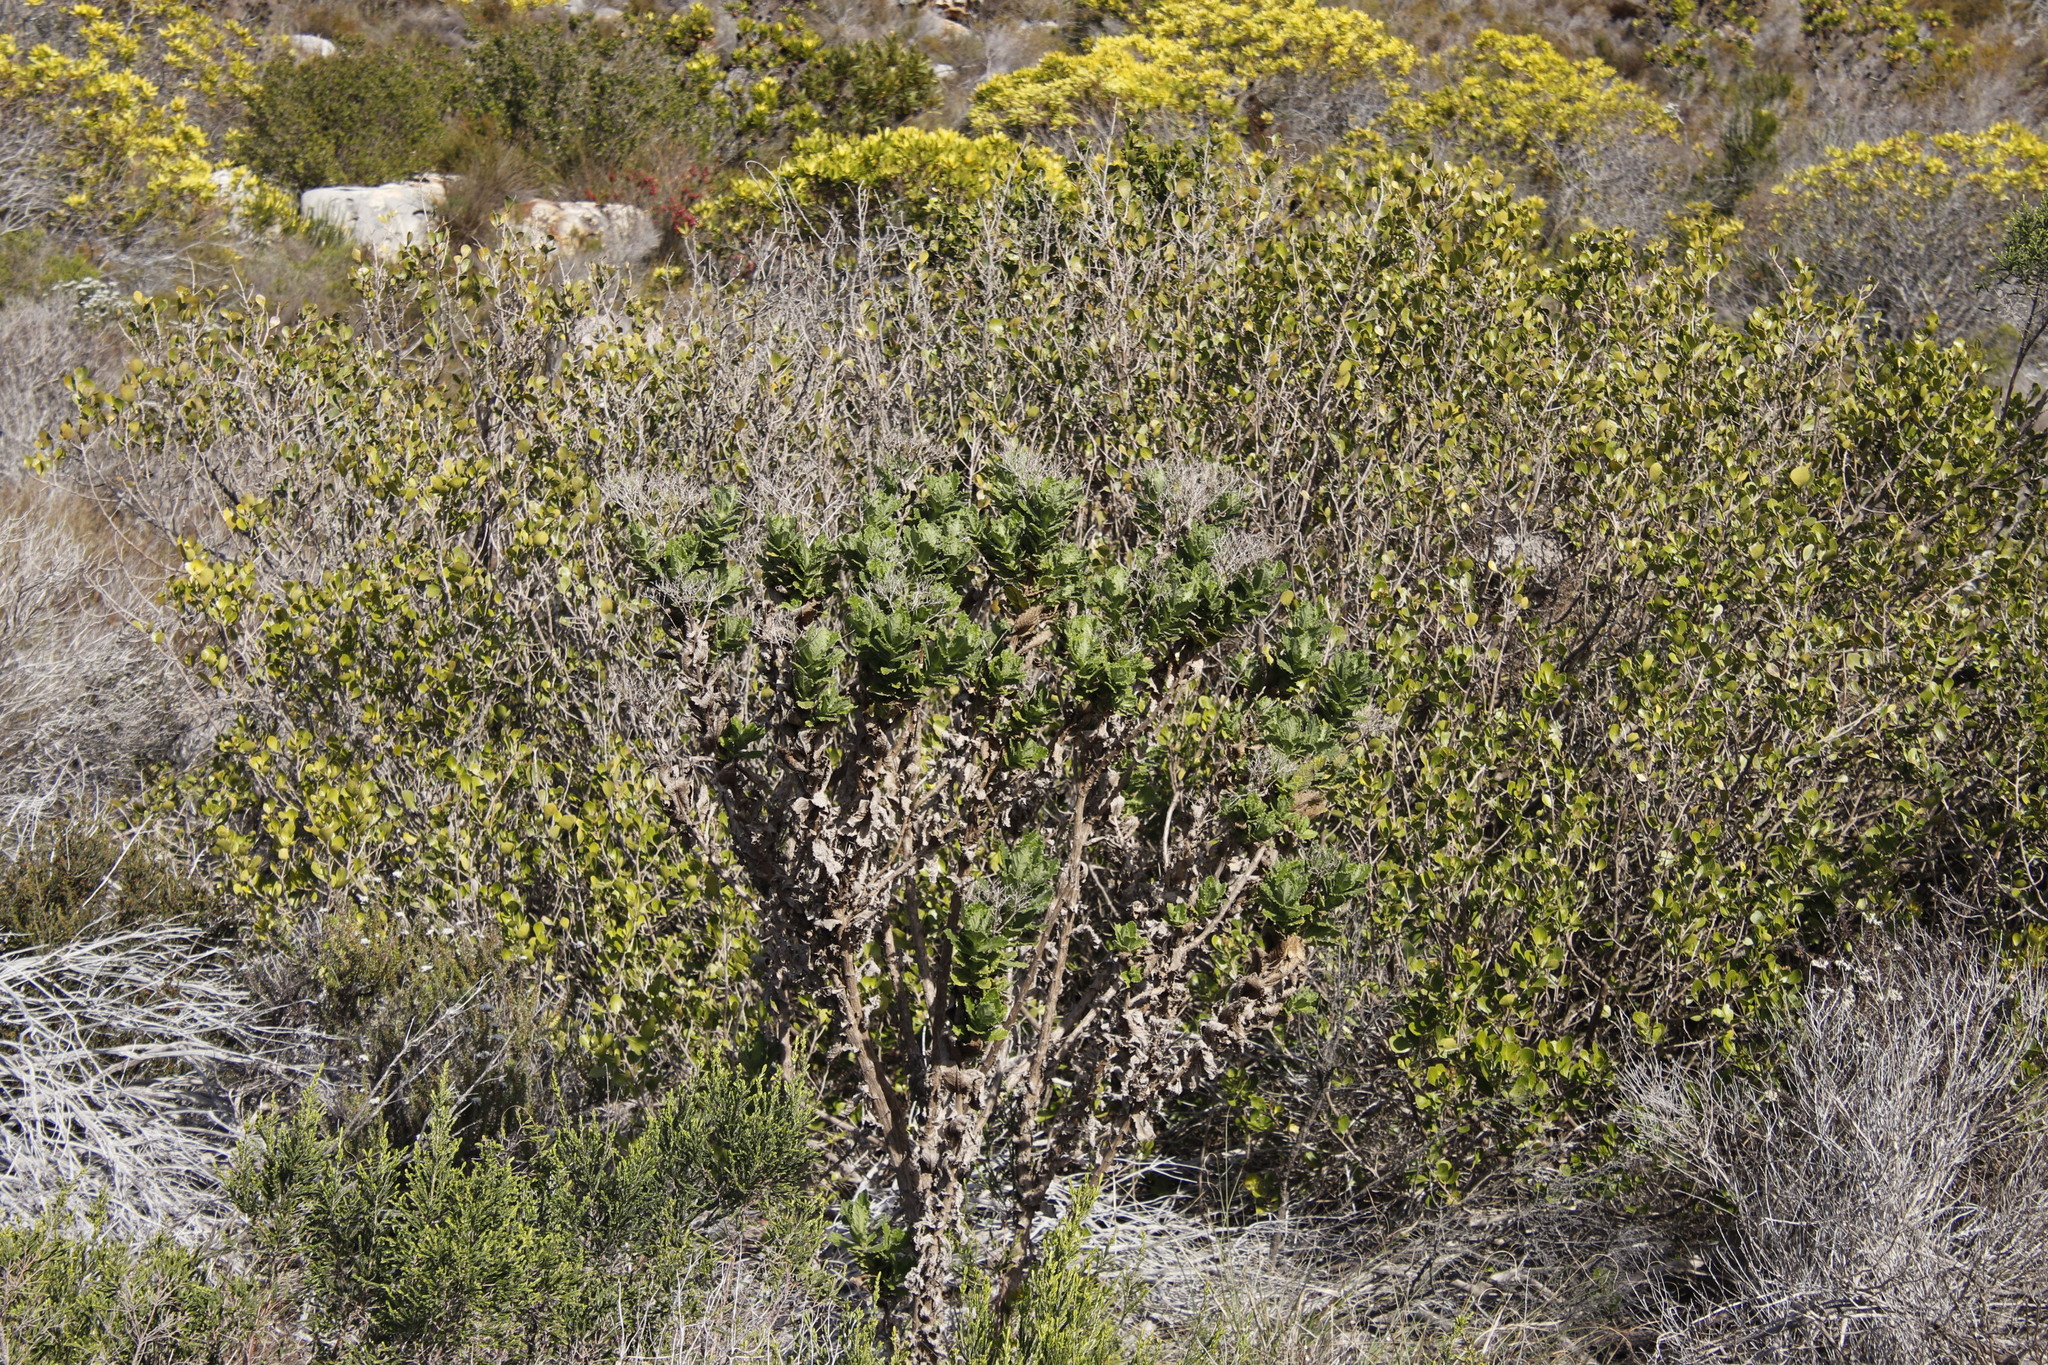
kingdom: Plantae
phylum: Tracheophyta
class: Magnoliopsida
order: Asterales
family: Asteraceae
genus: Senecio
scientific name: Senecio rigidus
